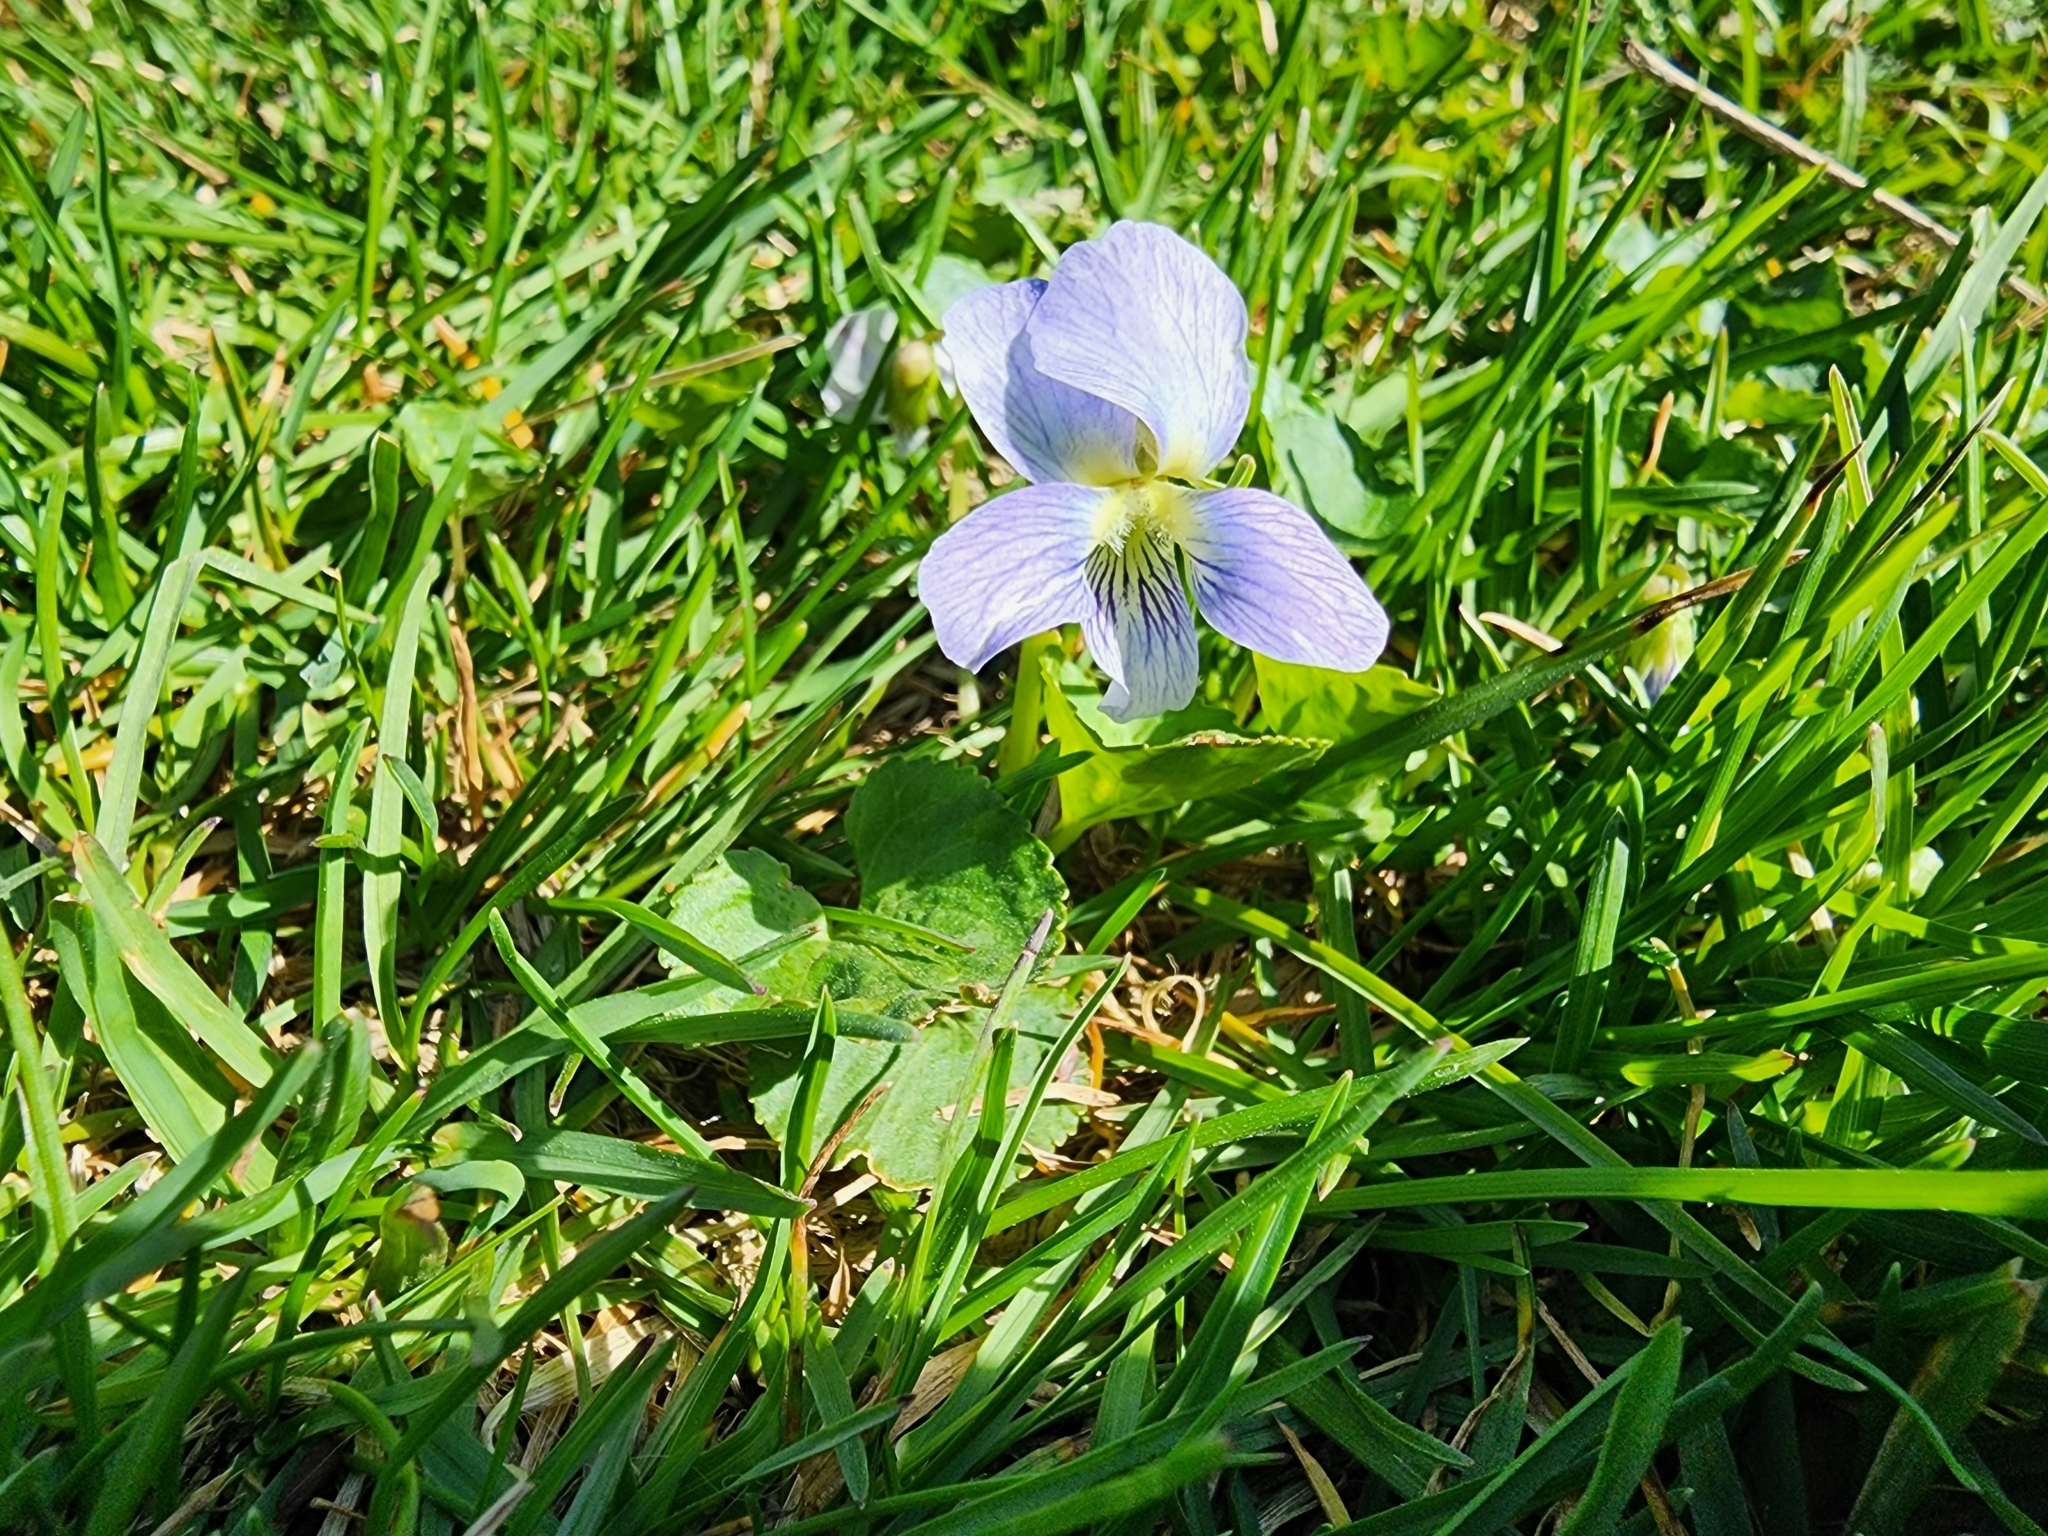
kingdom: Plantae
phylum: Tracheophyta
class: Magnoliopsida
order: Malpighiales
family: Violaceae
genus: Viola
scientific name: Viola sororia
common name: Dooryard violet
